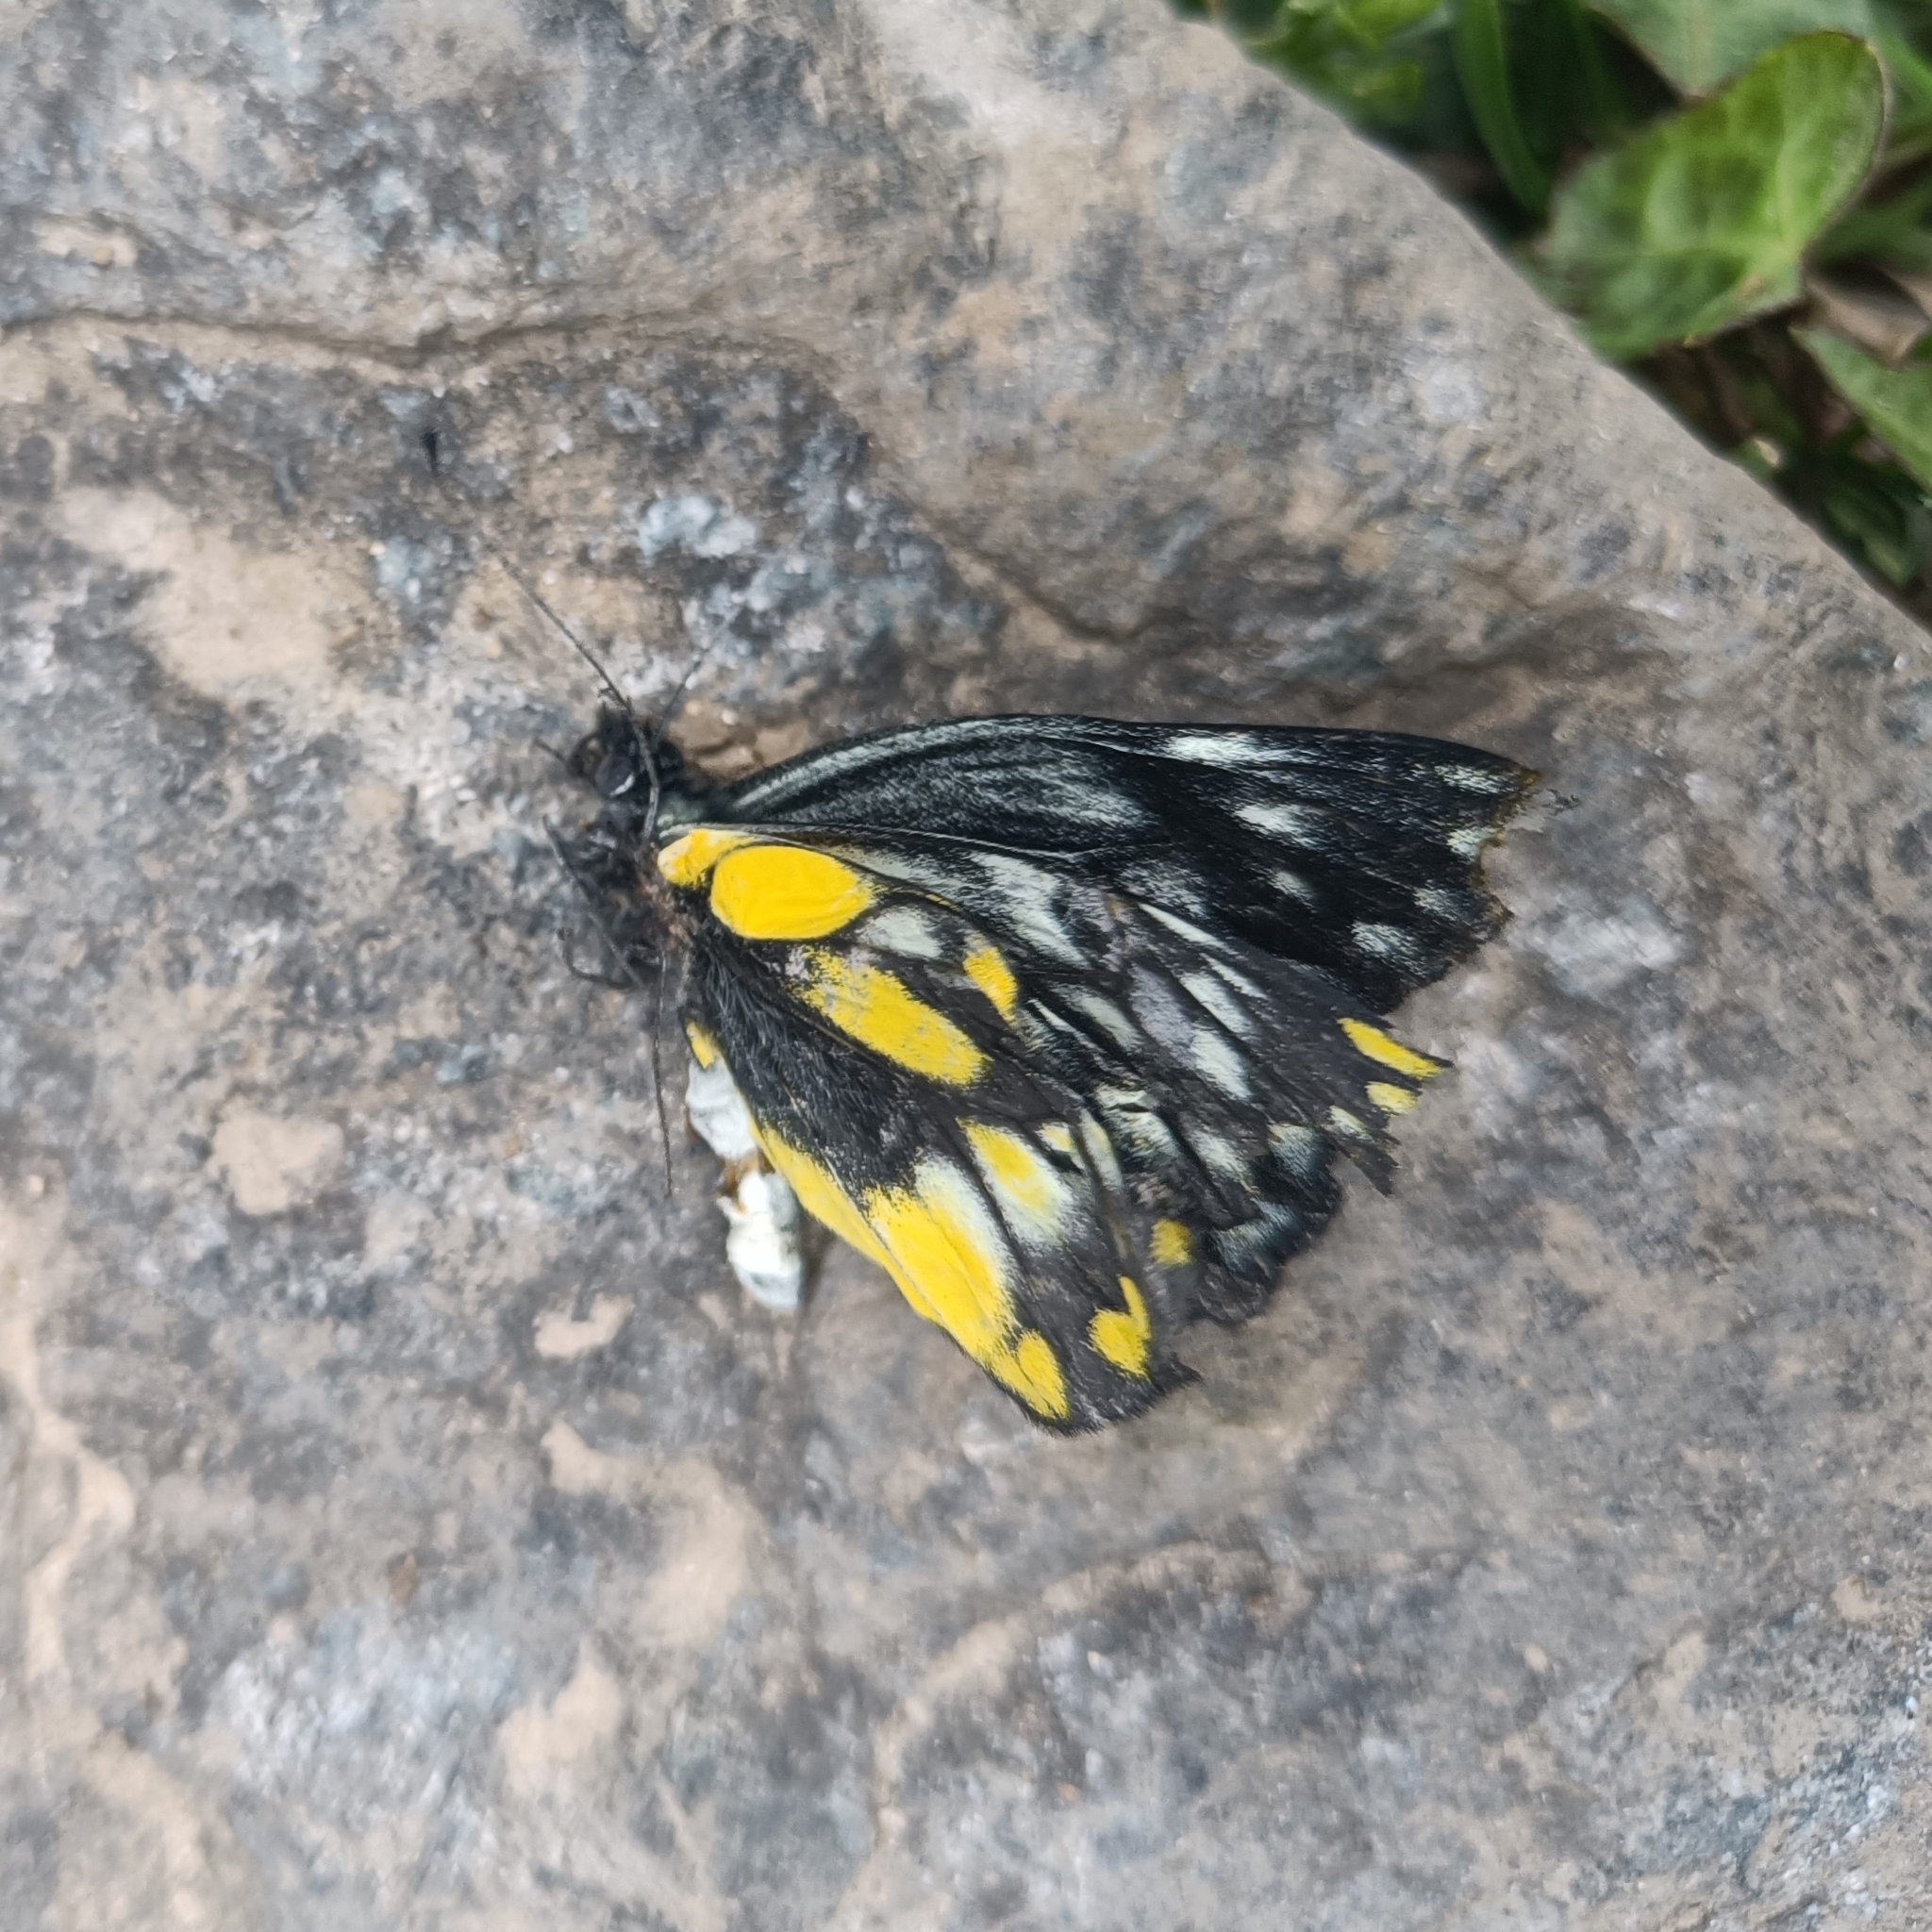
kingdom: Animalia
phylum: Arthropoda
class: Insecta
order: Lepidoptera
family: Pieridae
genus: Delias
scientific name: Delias belladonna
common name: Hill jezebel
